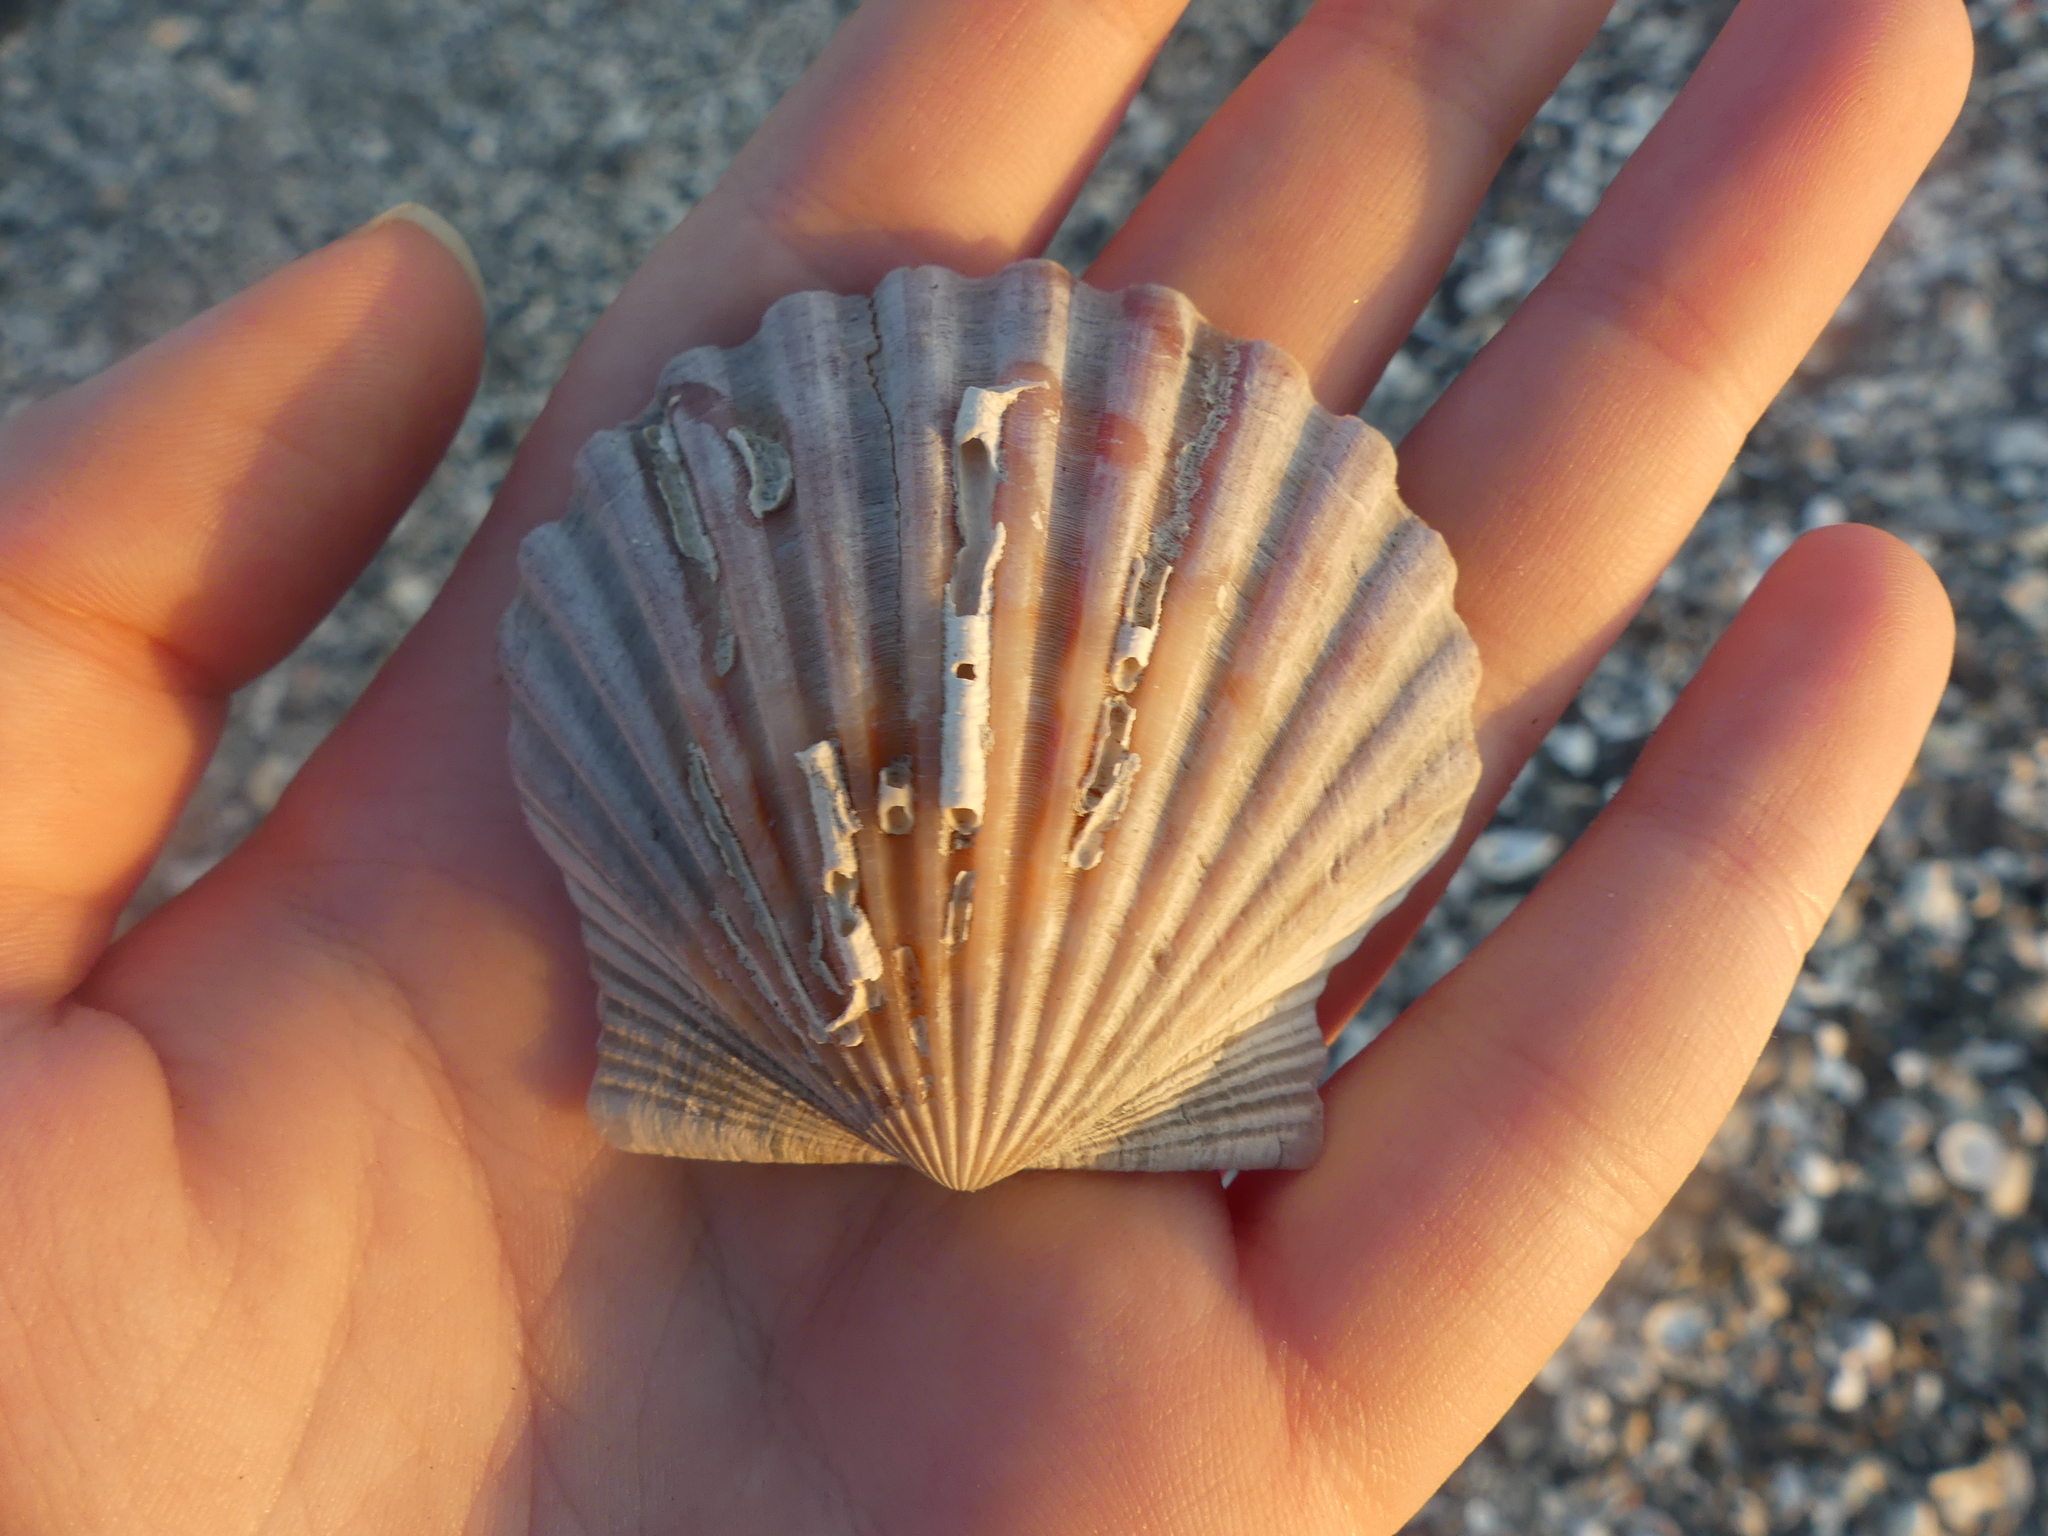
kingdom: Animalia
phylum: Mollusca
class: Bivalvia
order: Pectinida
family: Pectinidae
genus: Argopecten
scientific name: Argopecten irradians
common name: Atlantic bay scallop
